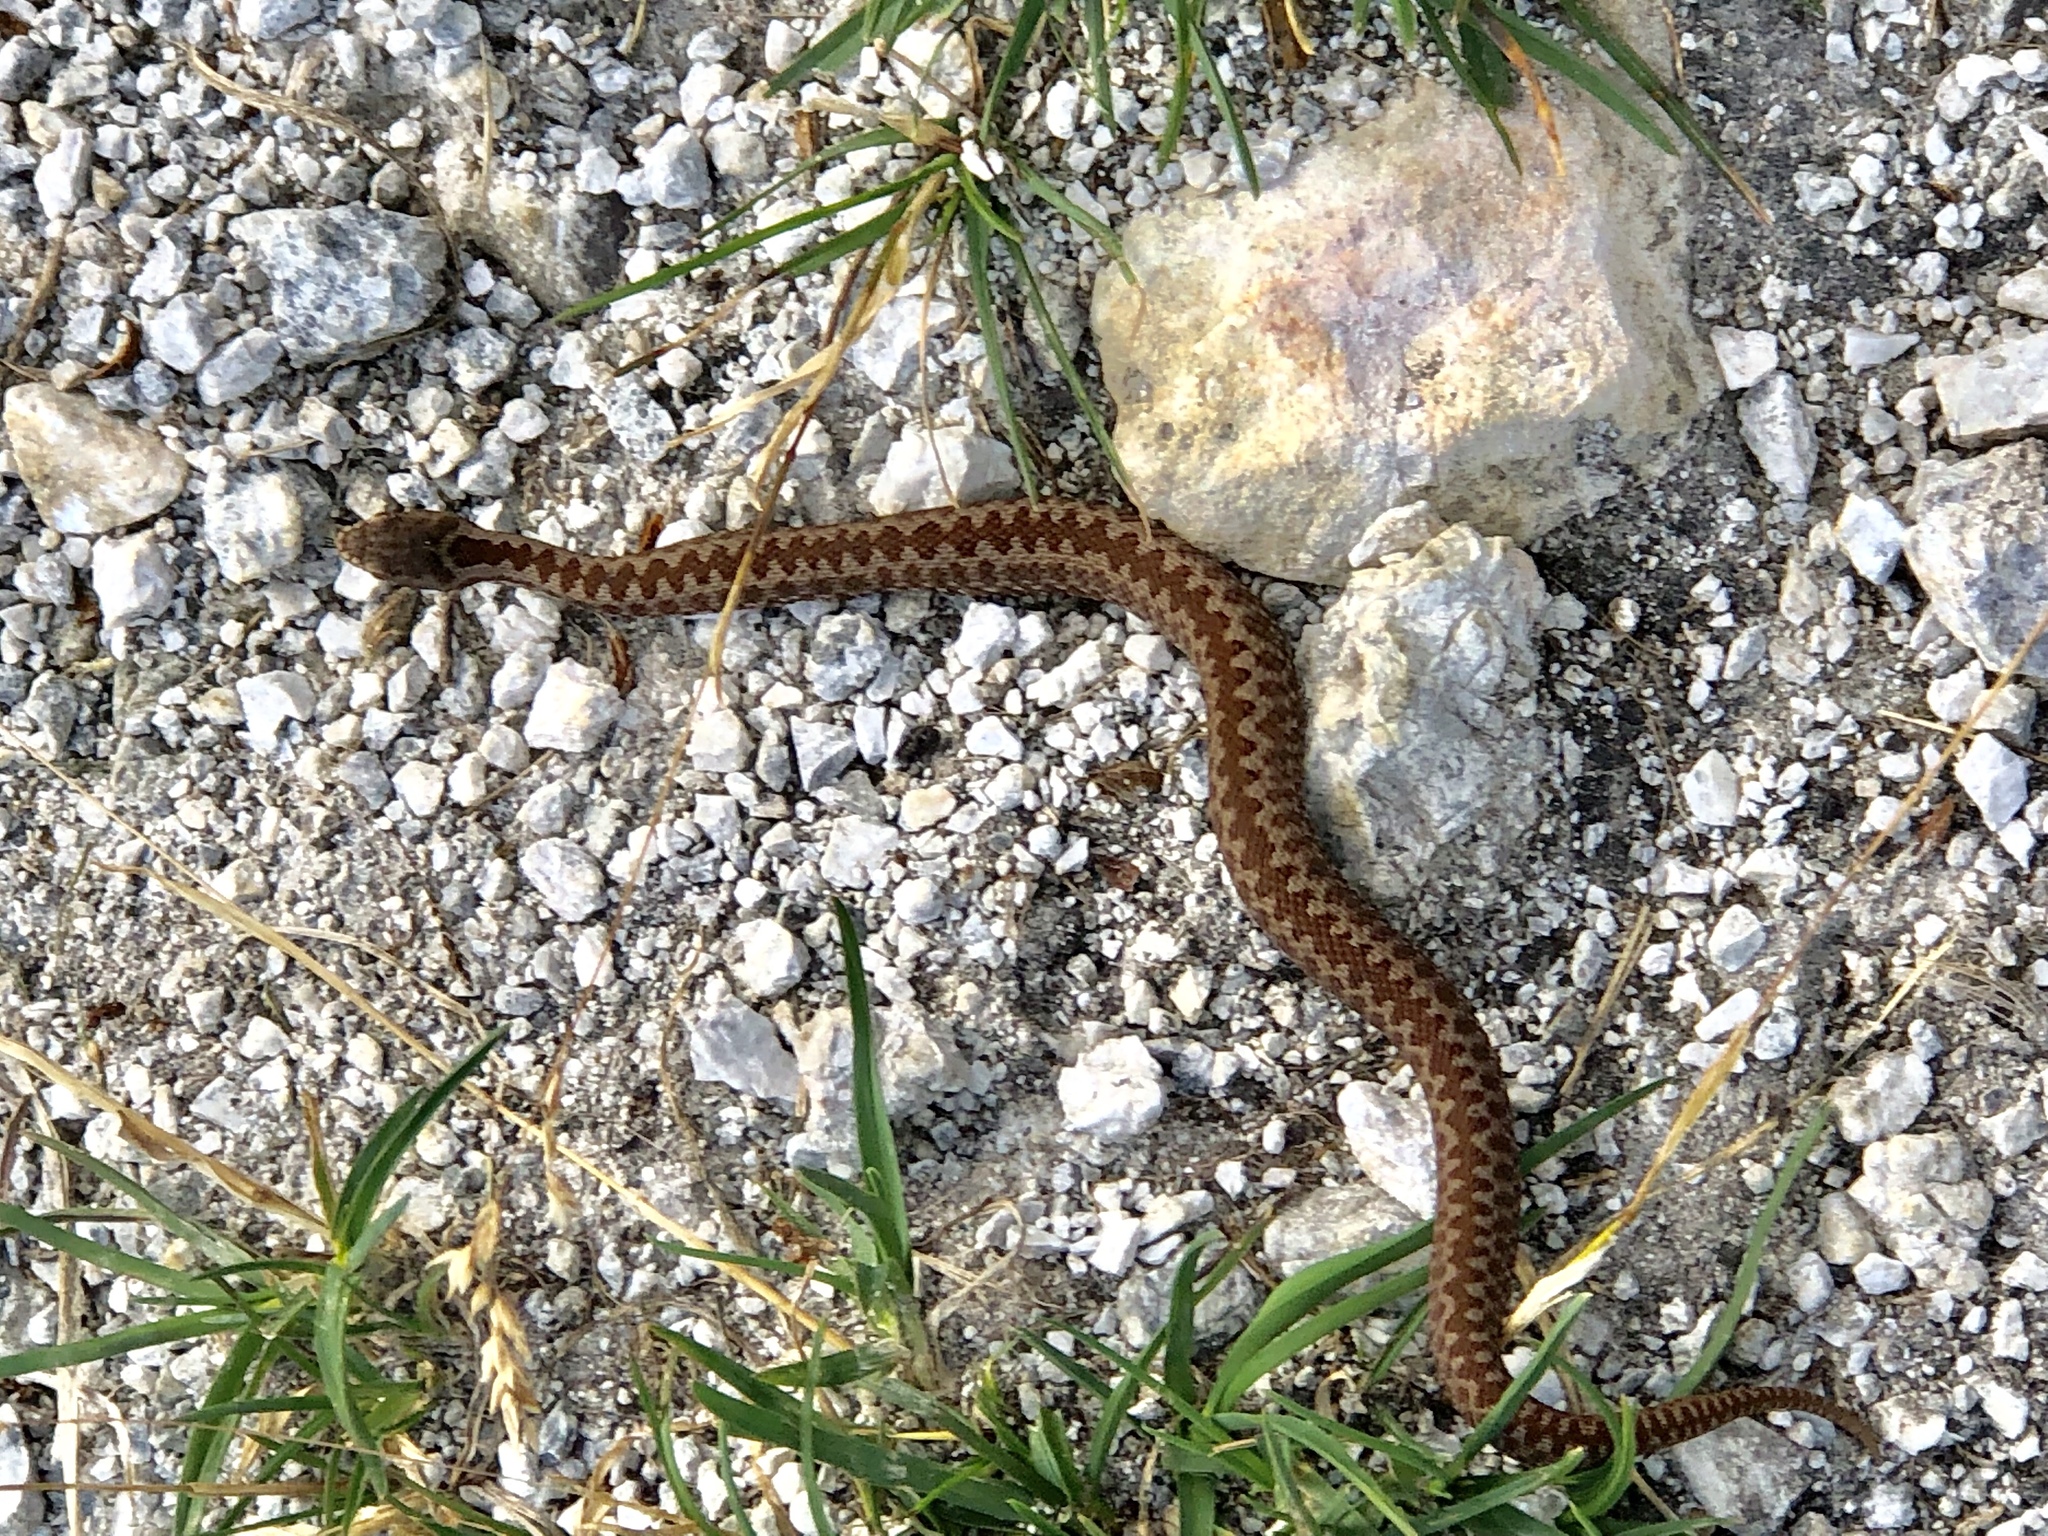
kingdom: Animalia
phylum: Chordata
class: Squamata
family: Viperidae
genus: Vipera
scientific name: Vipera berus
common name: Adder
